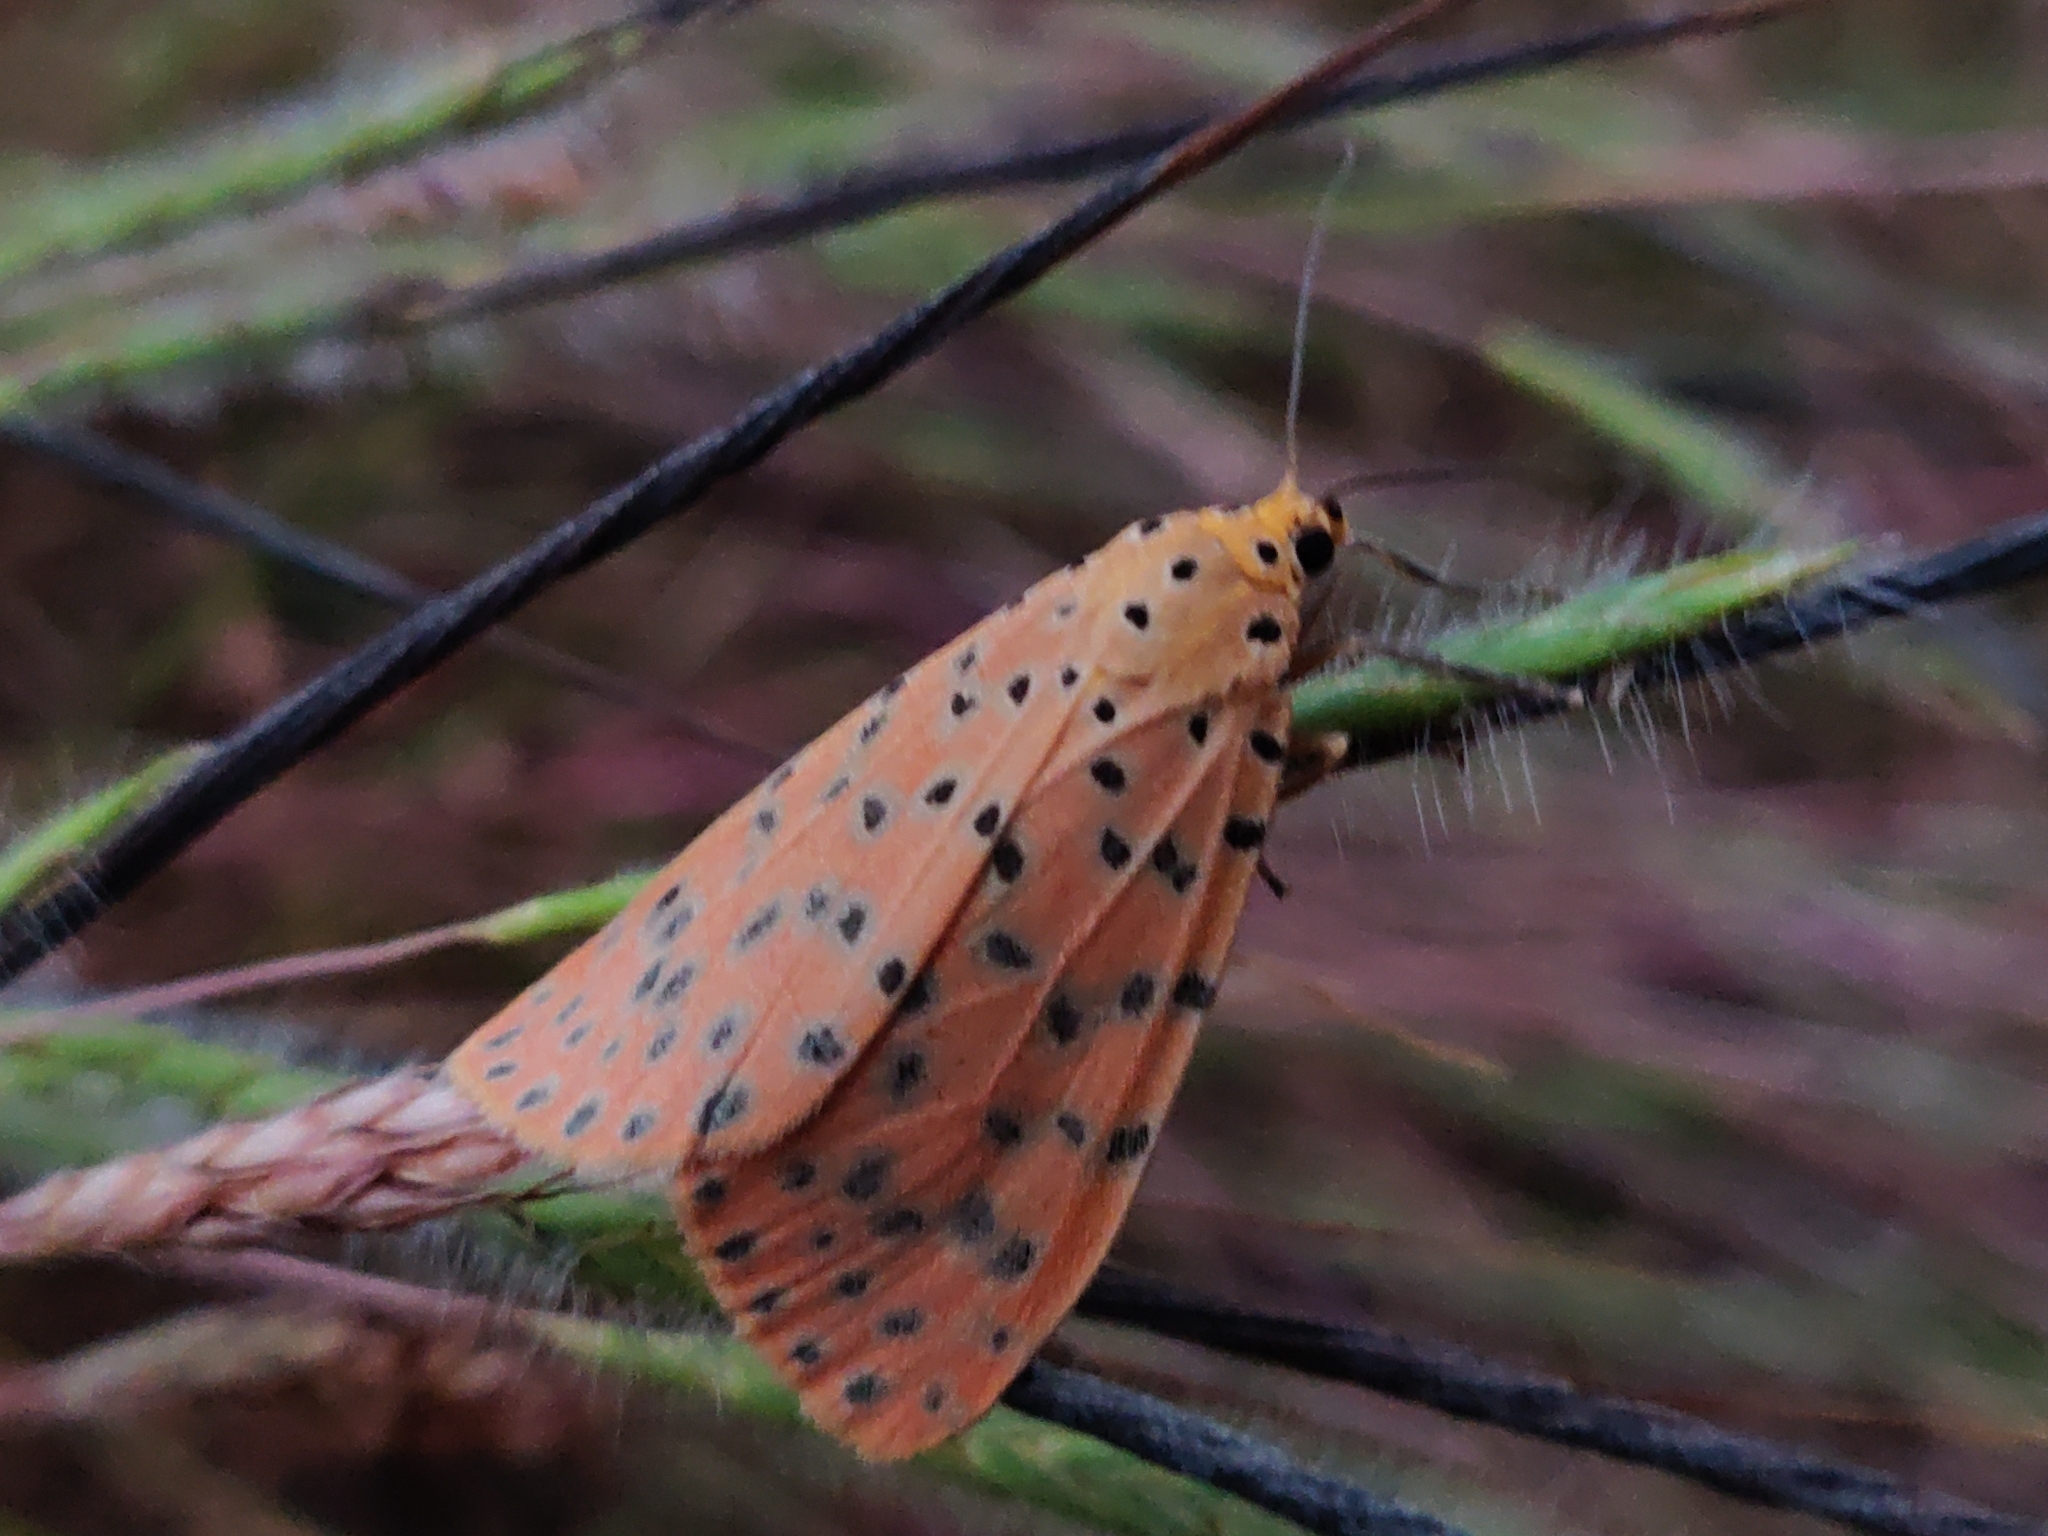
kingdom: Animalia
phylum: Arthropoda
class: Insecta
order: Lepidoptera
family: Erebidae
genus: Argina
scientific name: Argina astrea
